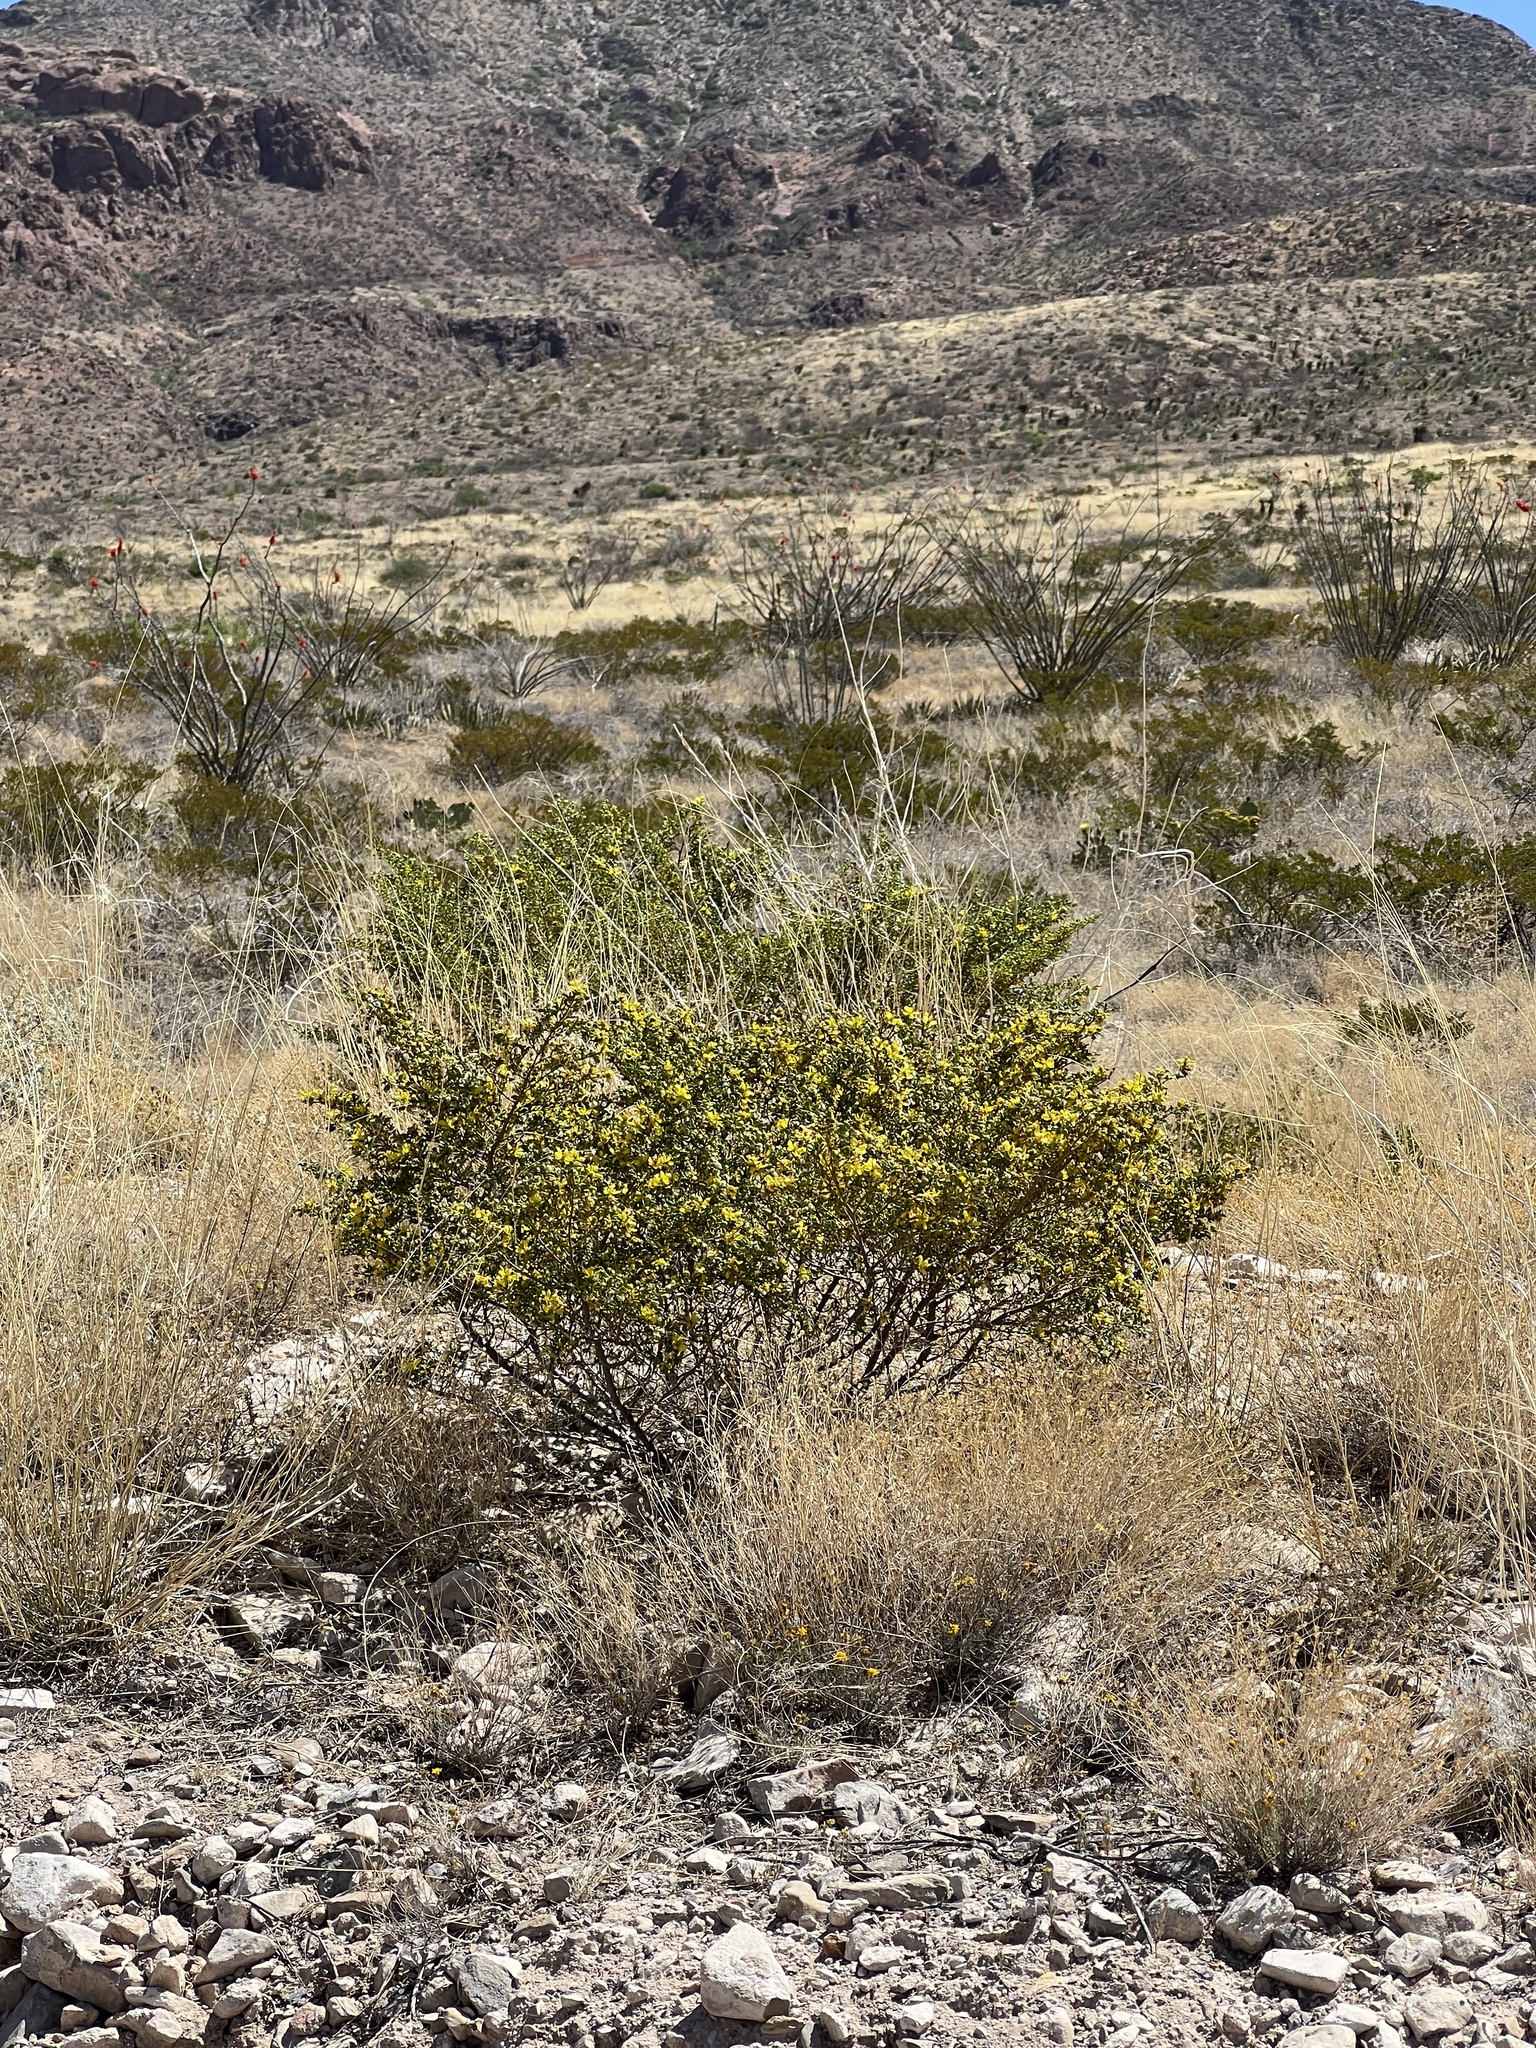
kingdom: Plantae
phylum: Tracheophyta
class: Magnoliopsida
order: Zygophyllales
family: Zygophyllaceae
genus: Larrea
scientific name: Larrea tridentata
